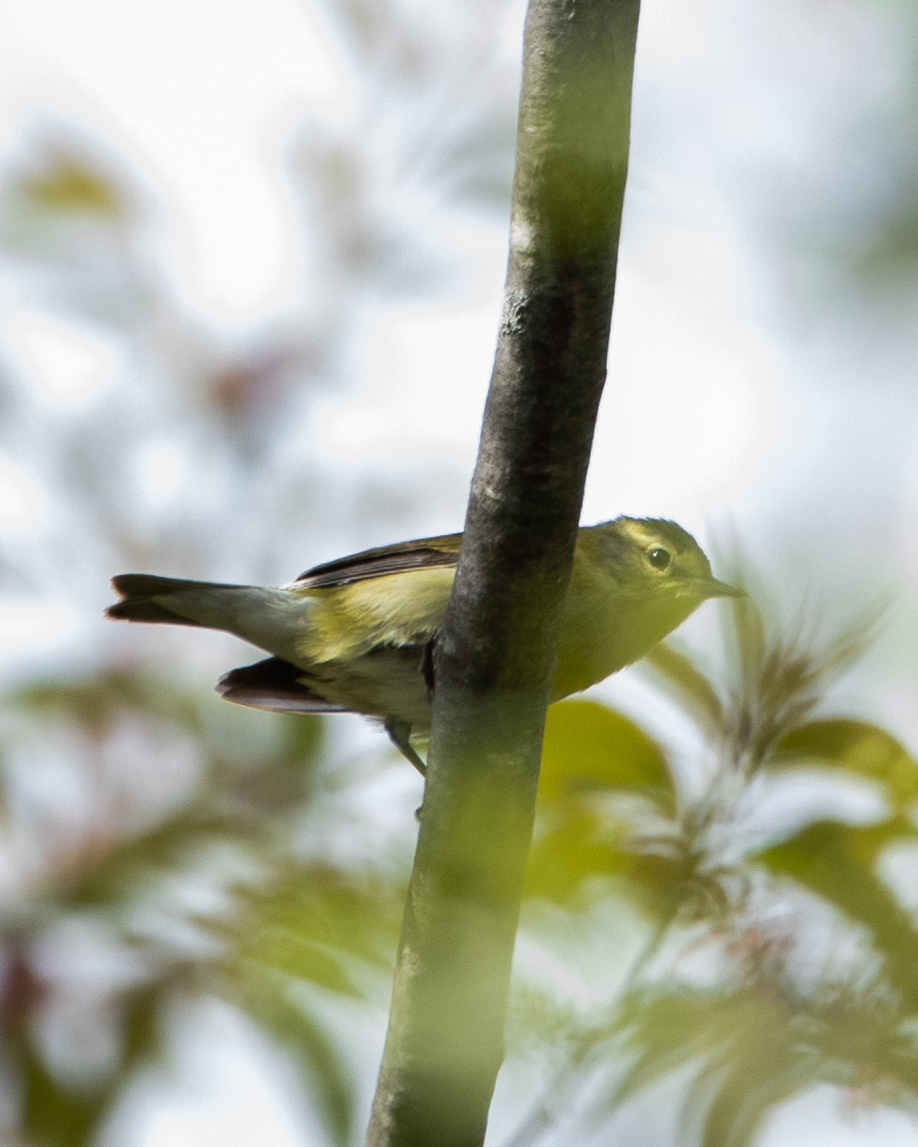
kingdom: Animalia
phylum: Chordata
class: Aves
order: Passeriformes
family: Parulidae
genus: Leiothlypis
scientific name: Leiothlypis peregrina
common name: Tennessee warbler
